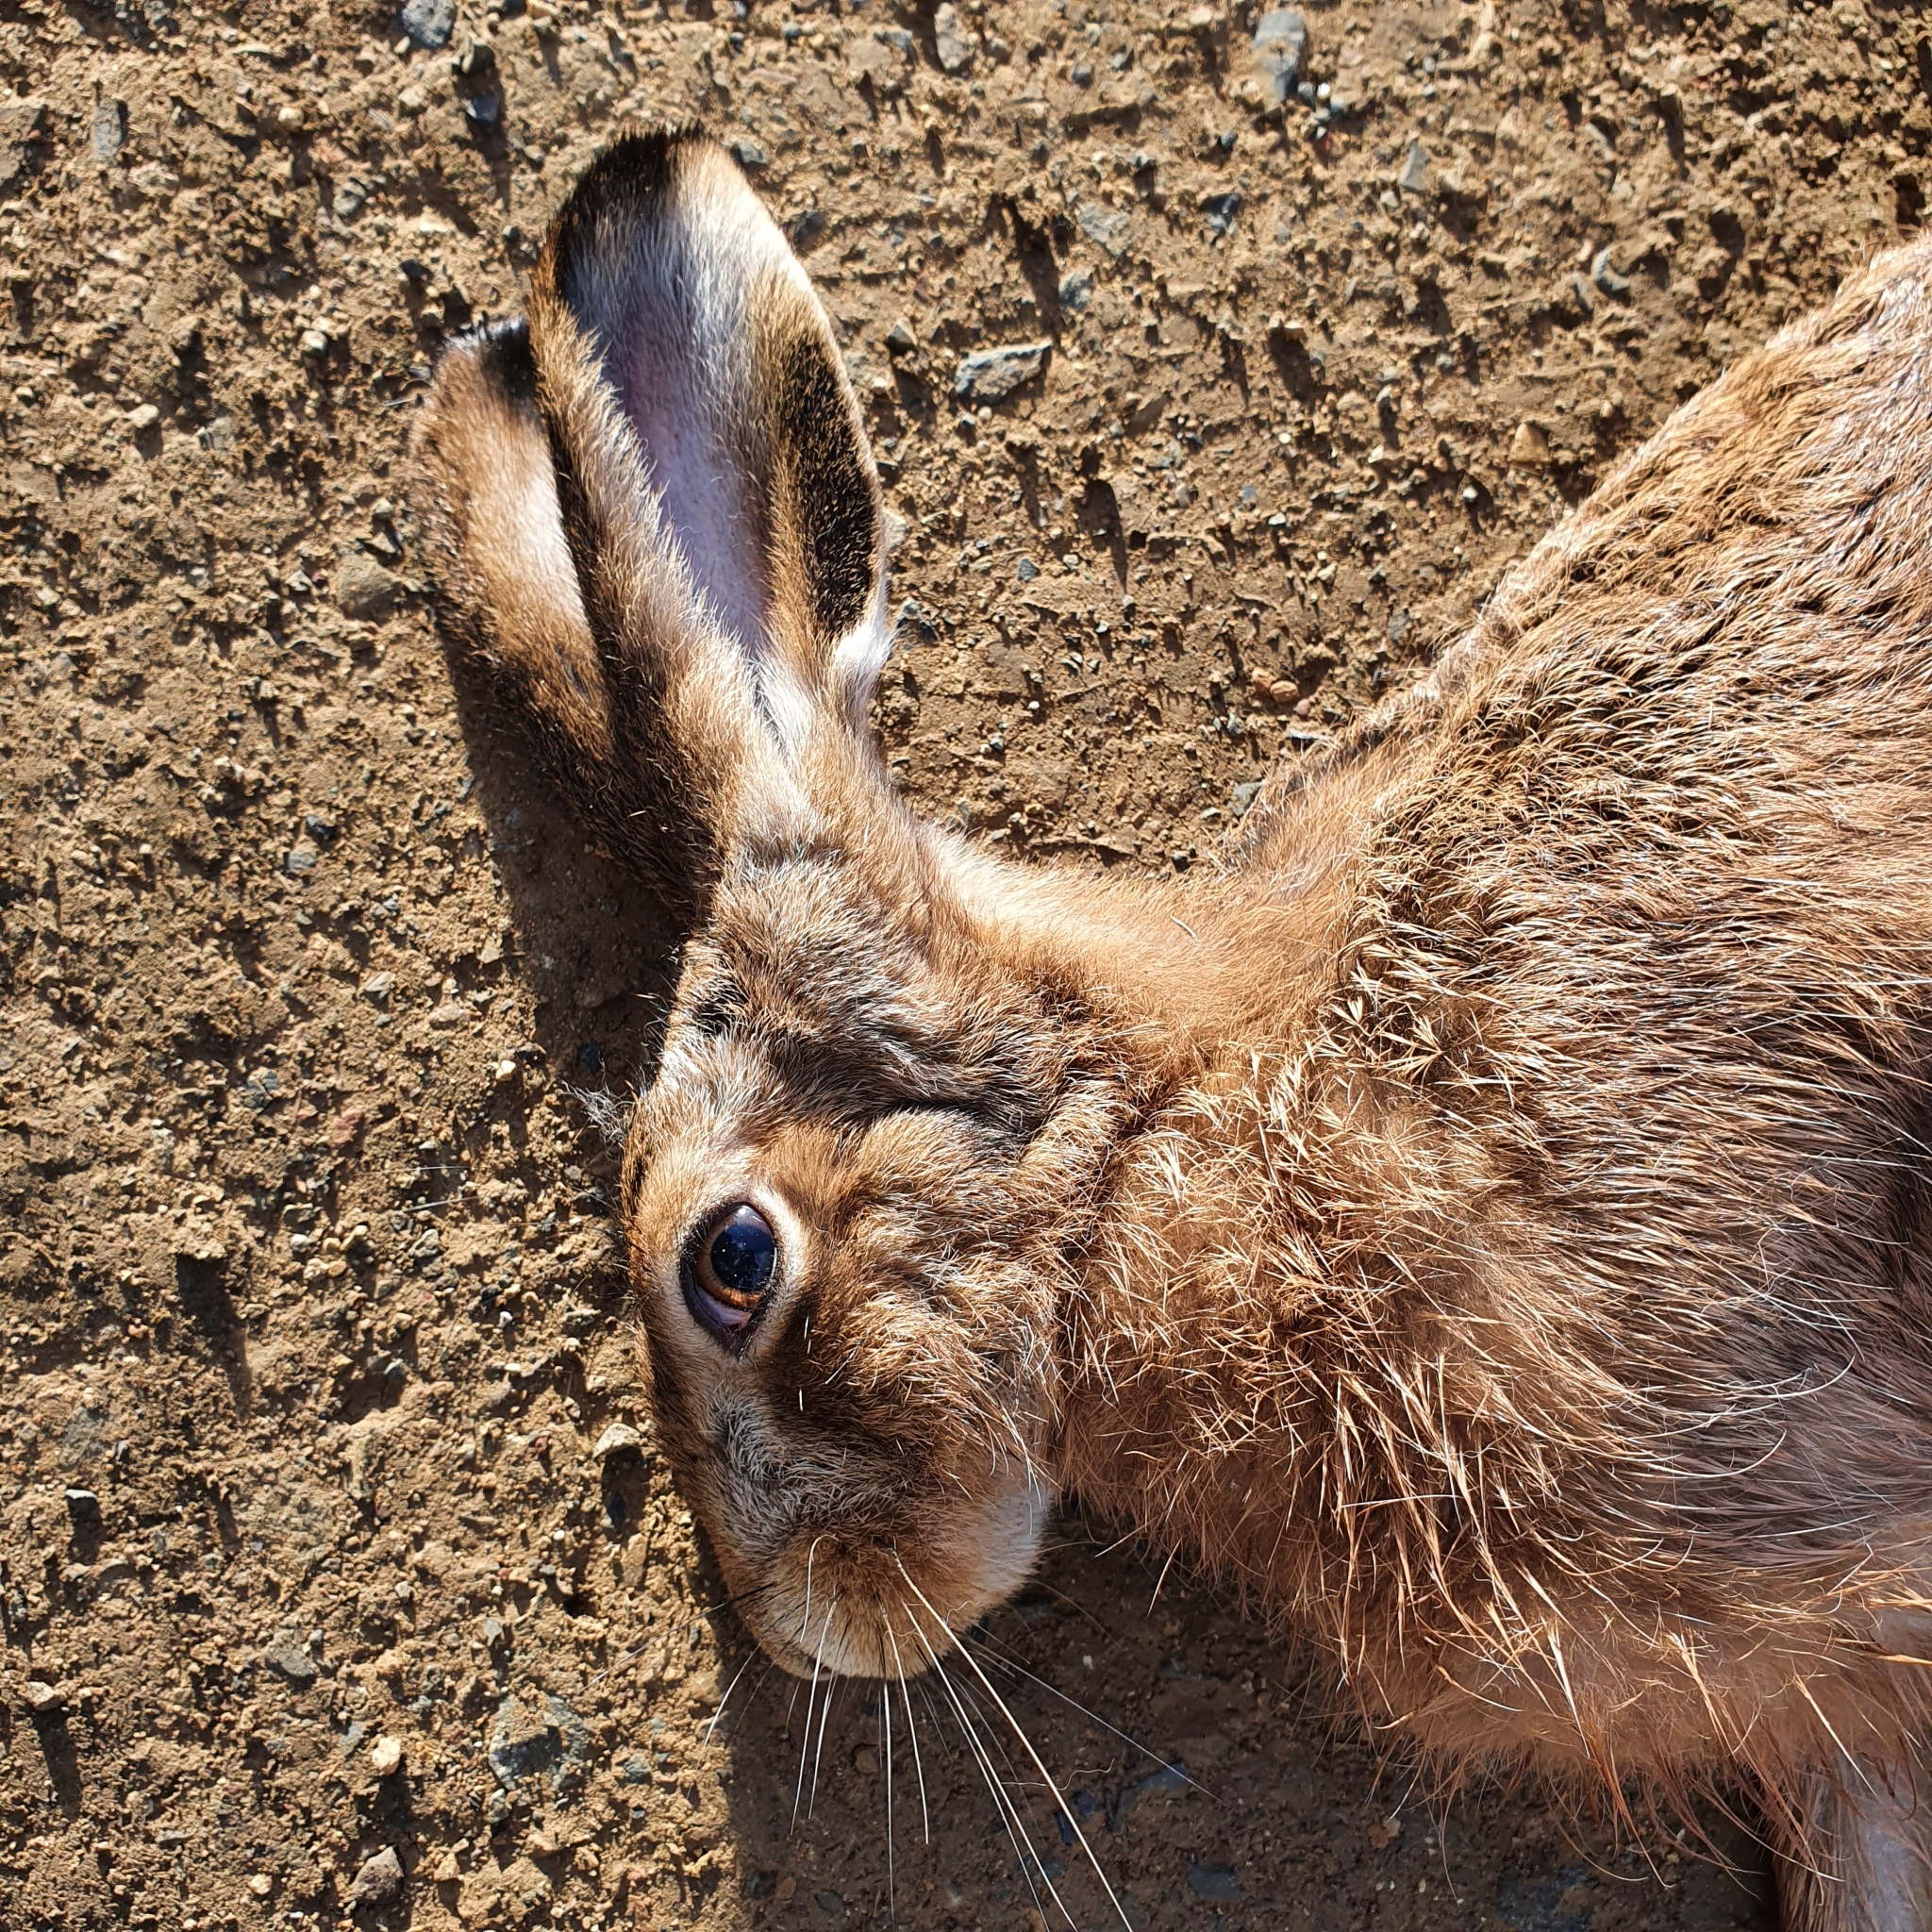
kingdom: Animalia
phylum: Chordata
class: Mammalia
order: Lagomorpha
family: Leporidae
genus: Lepus
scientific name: Lepus europaeus
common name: European hare
